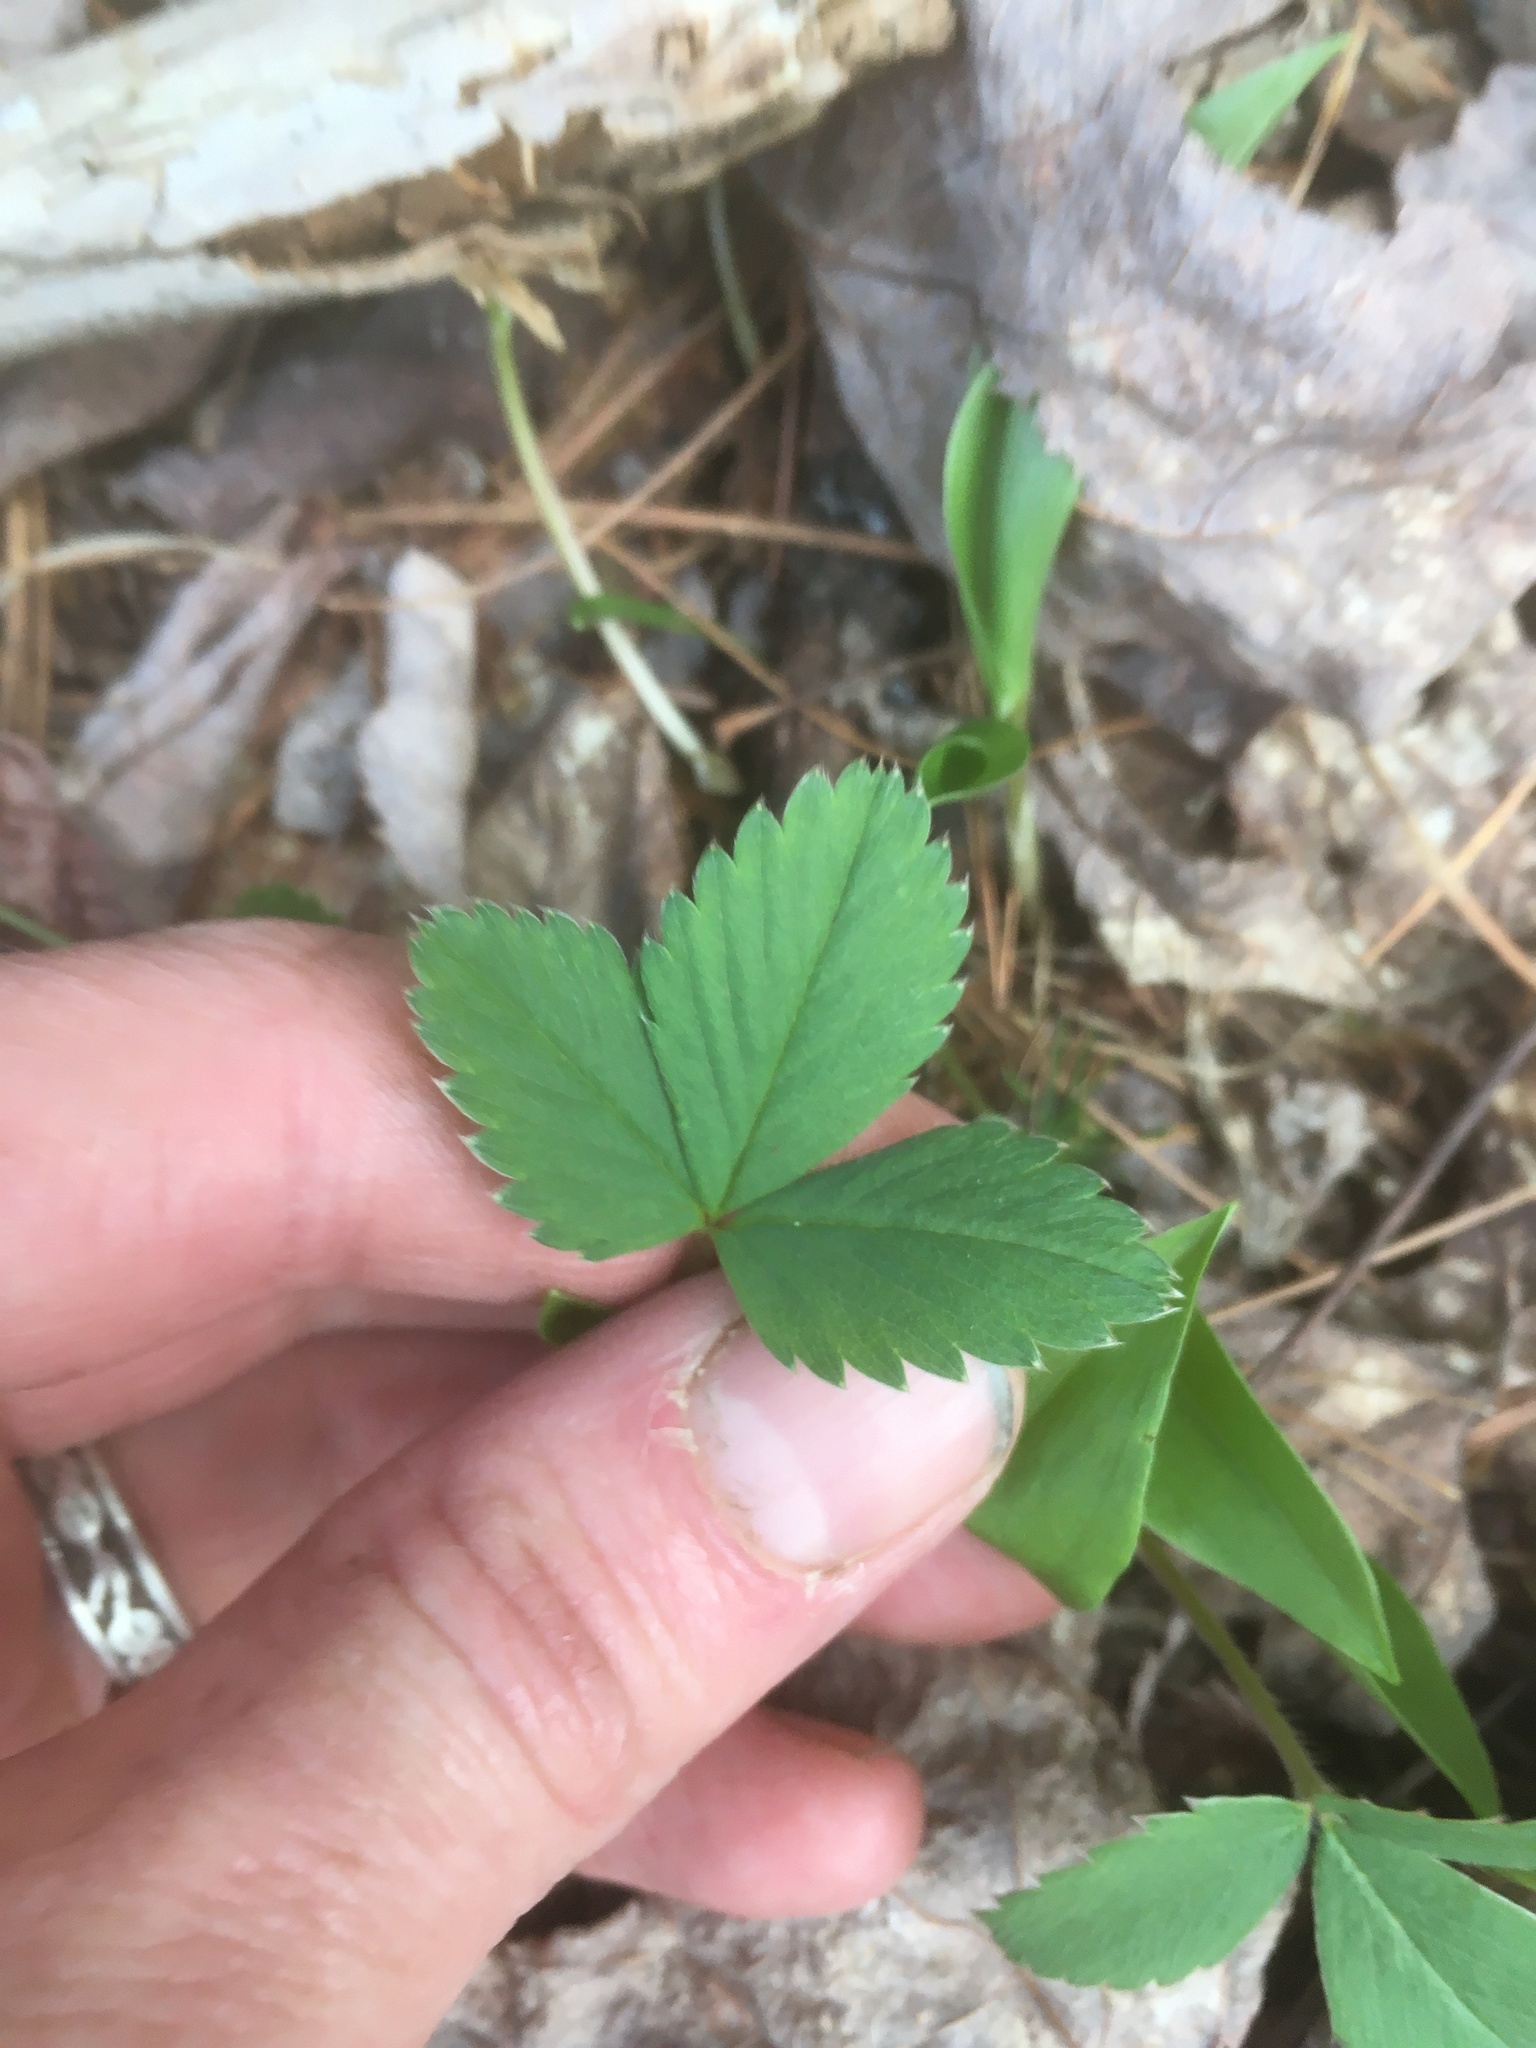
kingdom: Plantae
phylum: Tracheophyta
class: Magnoliopsida
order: Rosales
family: Rosaceae
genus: Fragaria
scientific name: Fragaria virginiana
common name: Thickleaved wild strawberry
